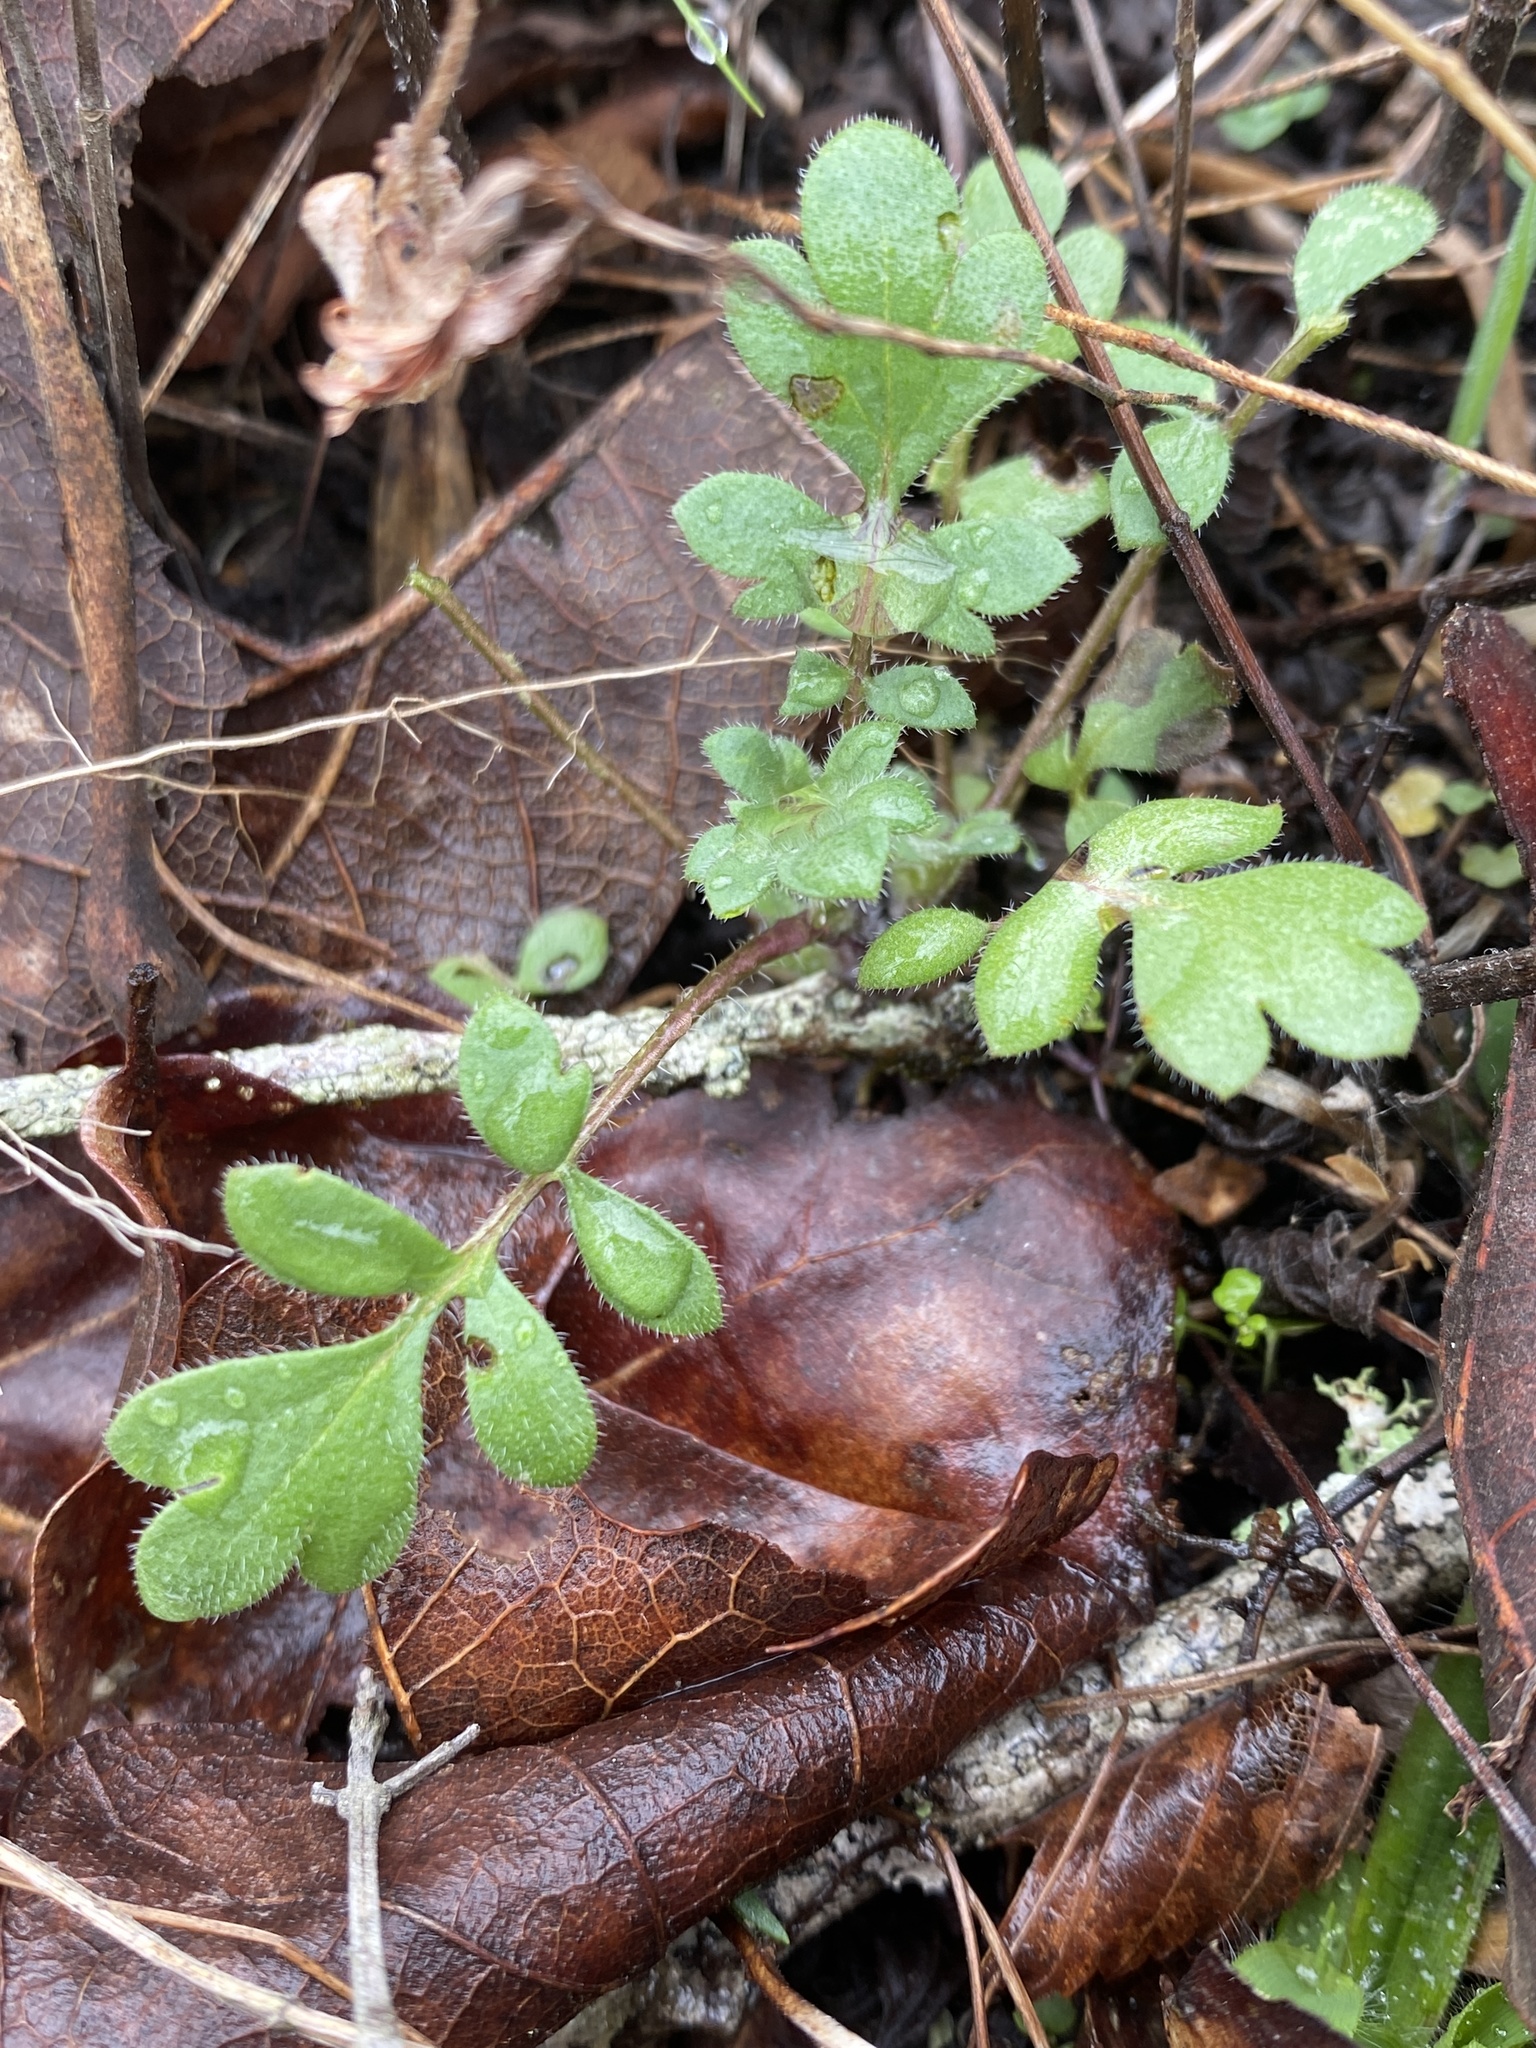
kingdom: Plantae
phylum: Tracheophyta
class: Magnoliopsida
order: Boraginales
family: Hydrophyllaceae
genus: Phacelia
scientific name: Phacelia hirsuta
